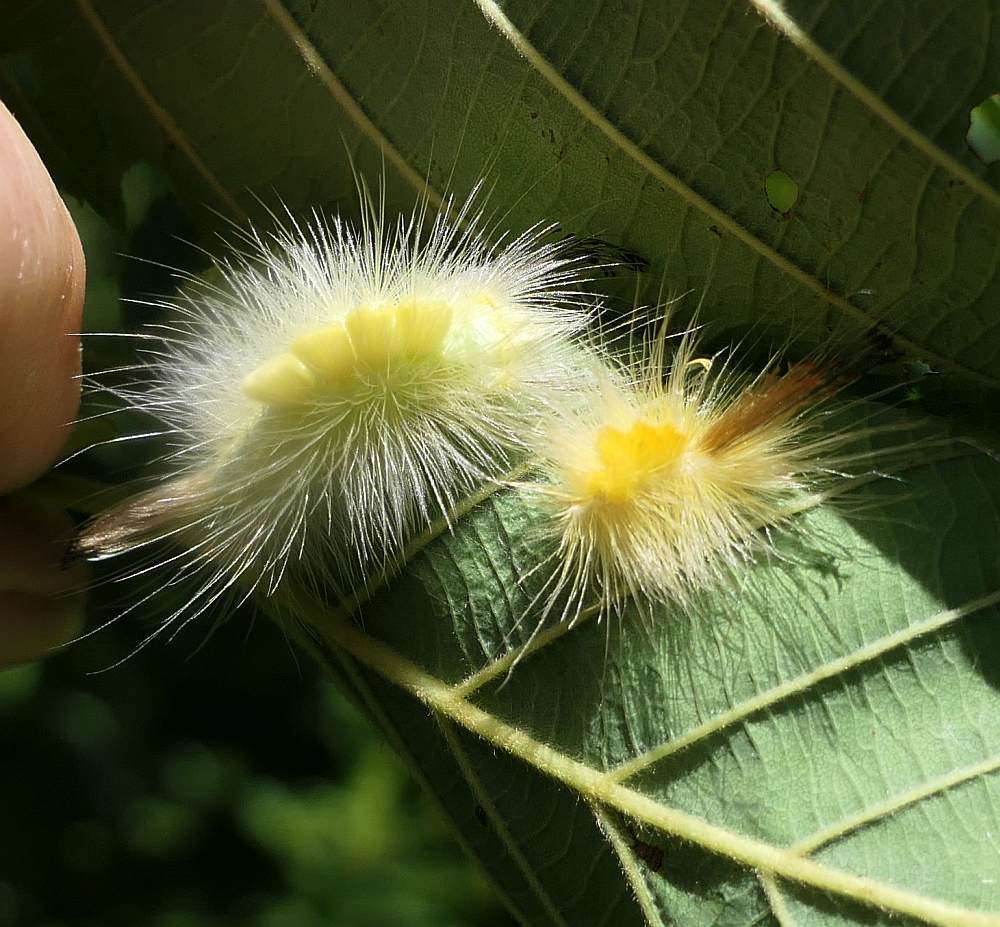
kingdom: Animalia
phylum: Arthropoda
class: Insecta
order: Lepidoptera
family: Erebidae
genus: Orgyia
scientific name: Orgyia definita
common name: Definite tussock moth
